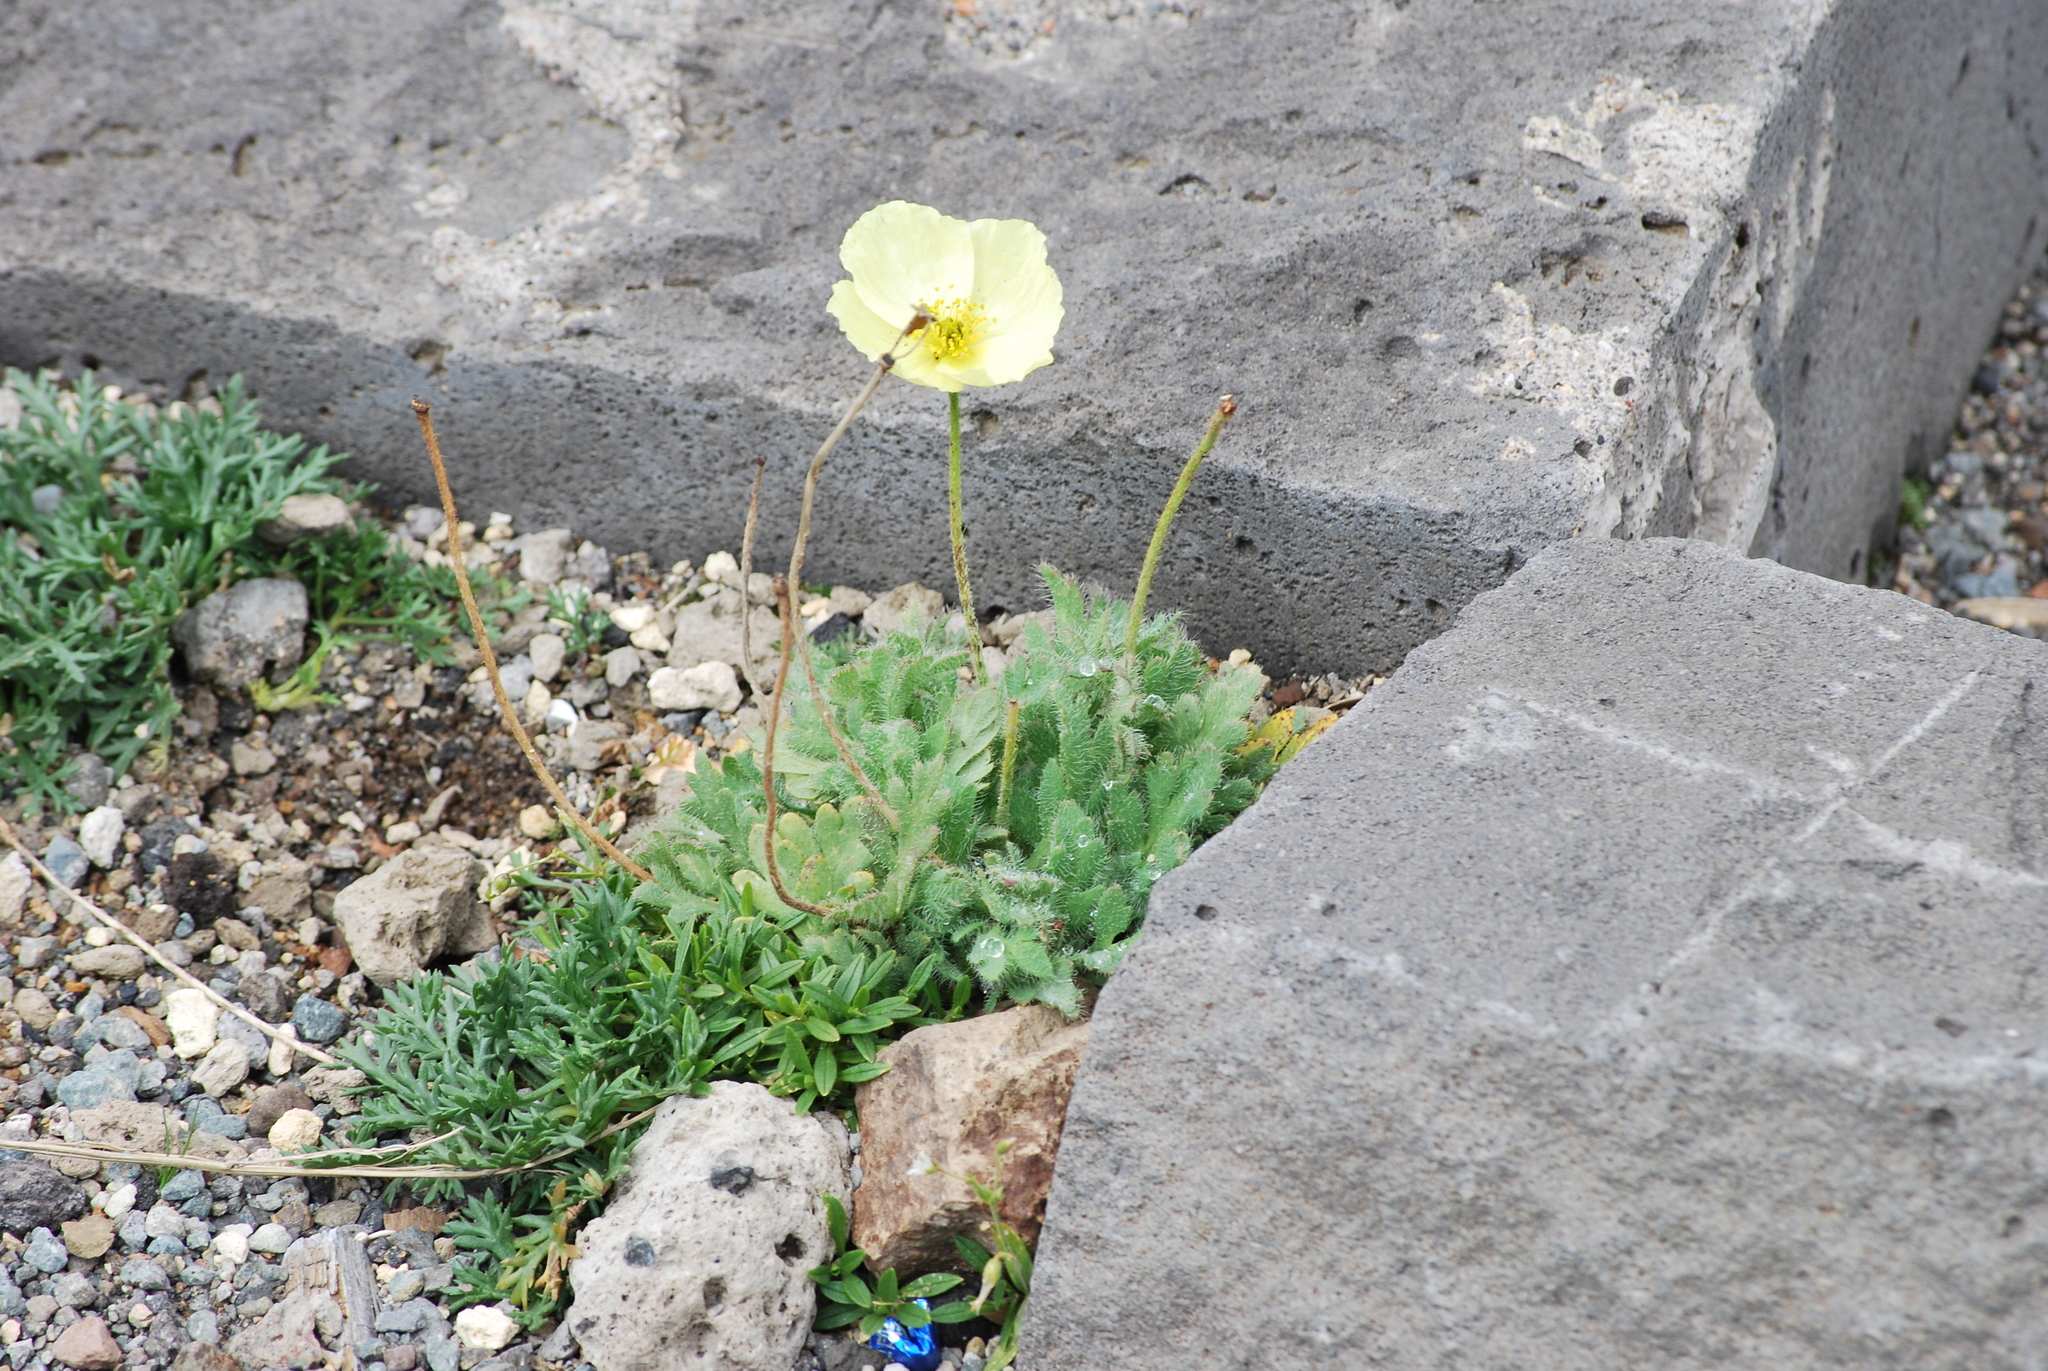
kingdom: Plantae
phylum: Tracheophyta
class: Magnoliopsida
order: Ranunculales
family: Papaveraceae
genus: Papaver
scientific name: Papaver pseudoradicatum
